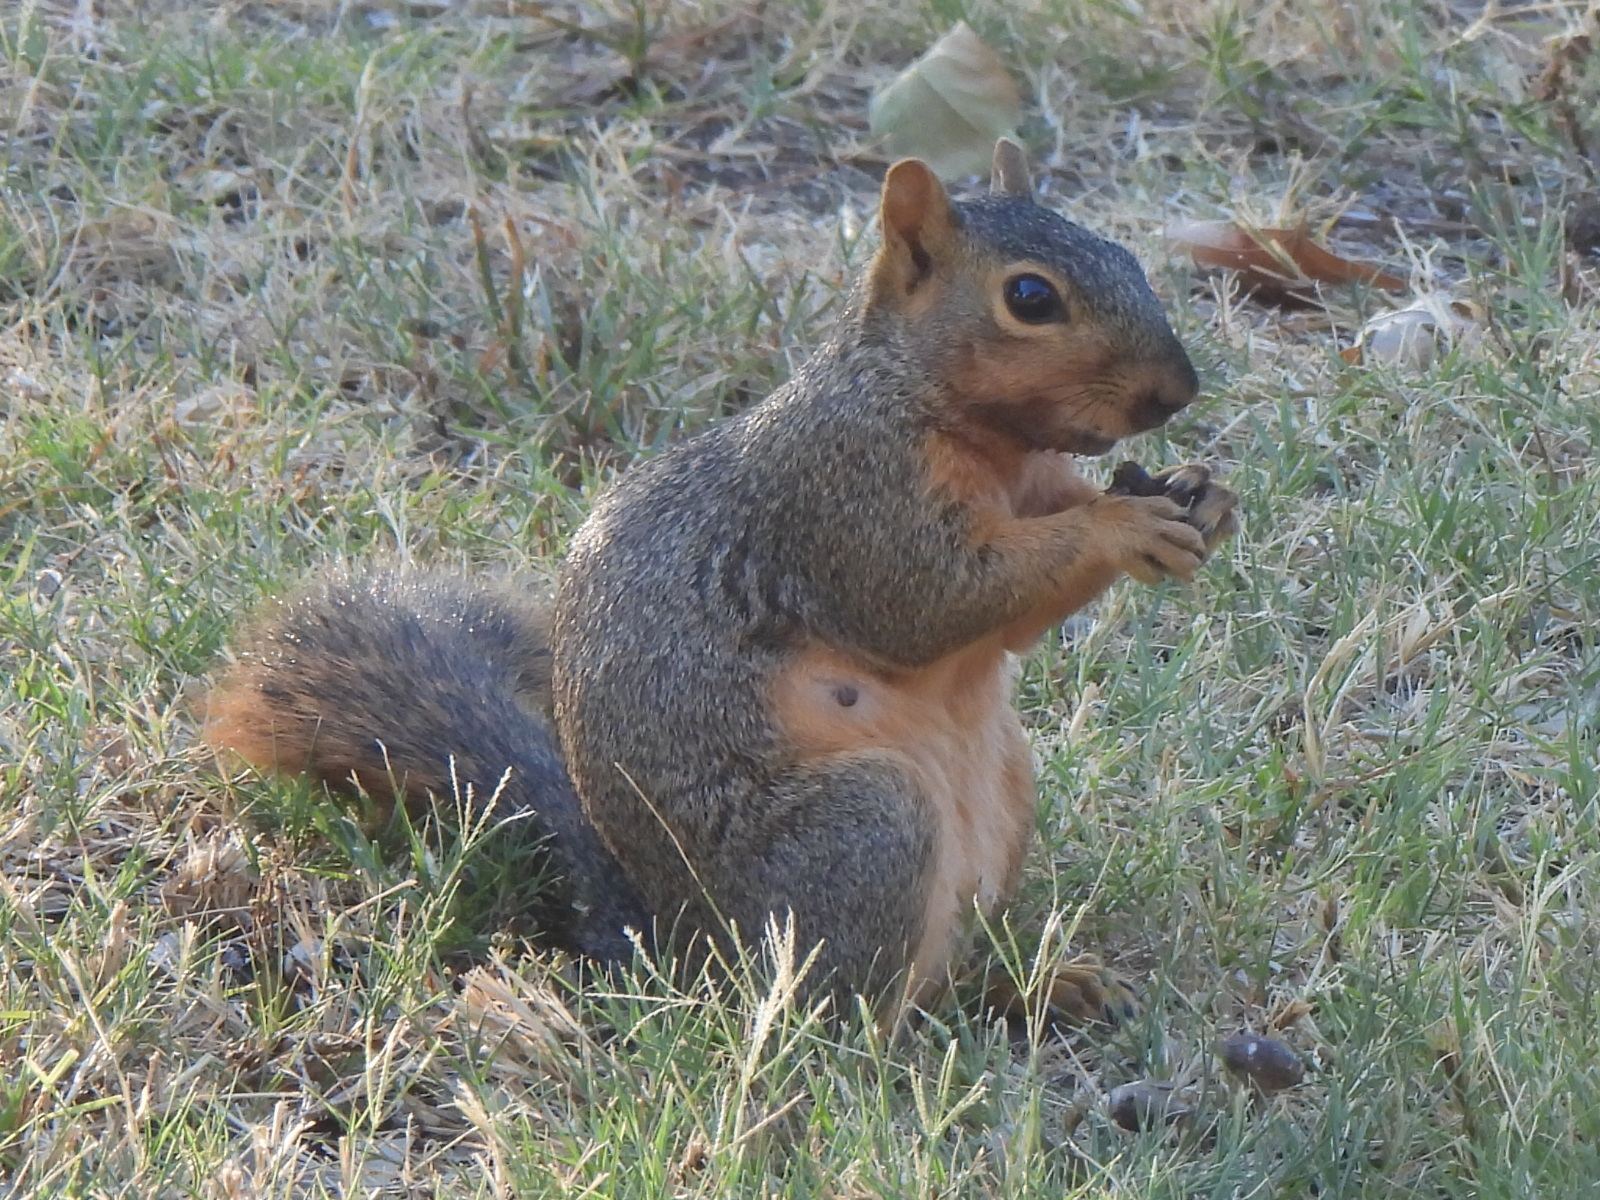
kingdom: Animalia
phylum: Chordata
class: Mammalia
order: Rodentia
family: Sciuridae
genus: Sciurus
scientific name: Sciurus niger
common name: Fox squirrel
